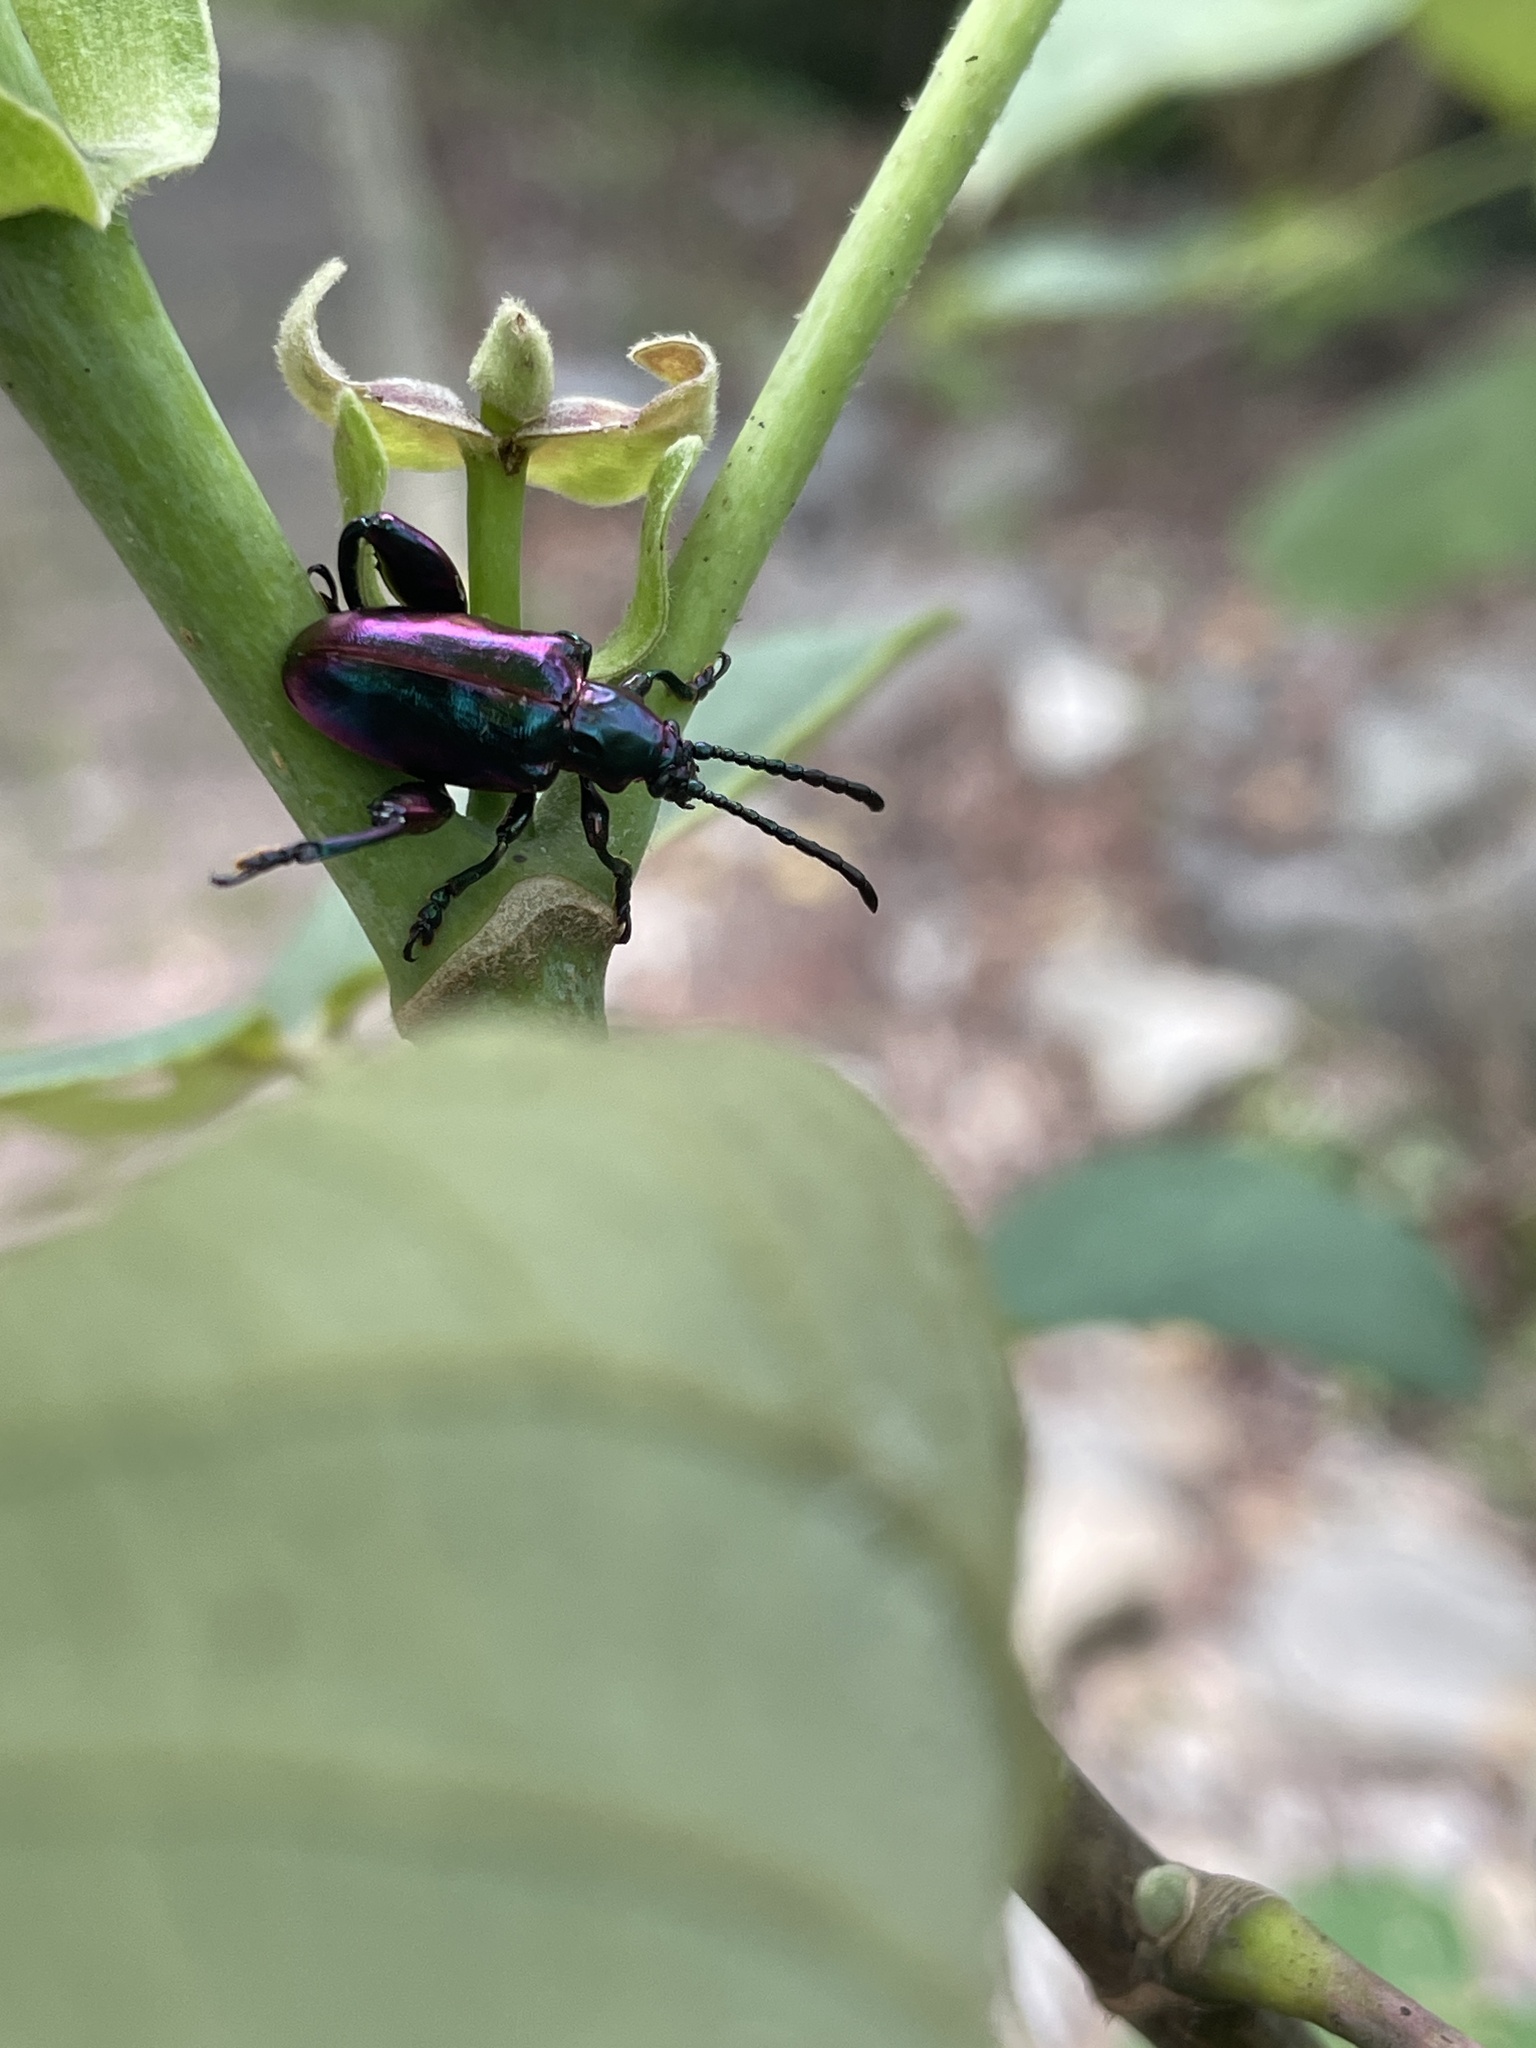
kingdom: Animalia
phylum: Arthropoda
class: Insecta
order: Coleoptera
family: Chrysomelidae
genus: Sagra
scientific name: Sagra femorata
